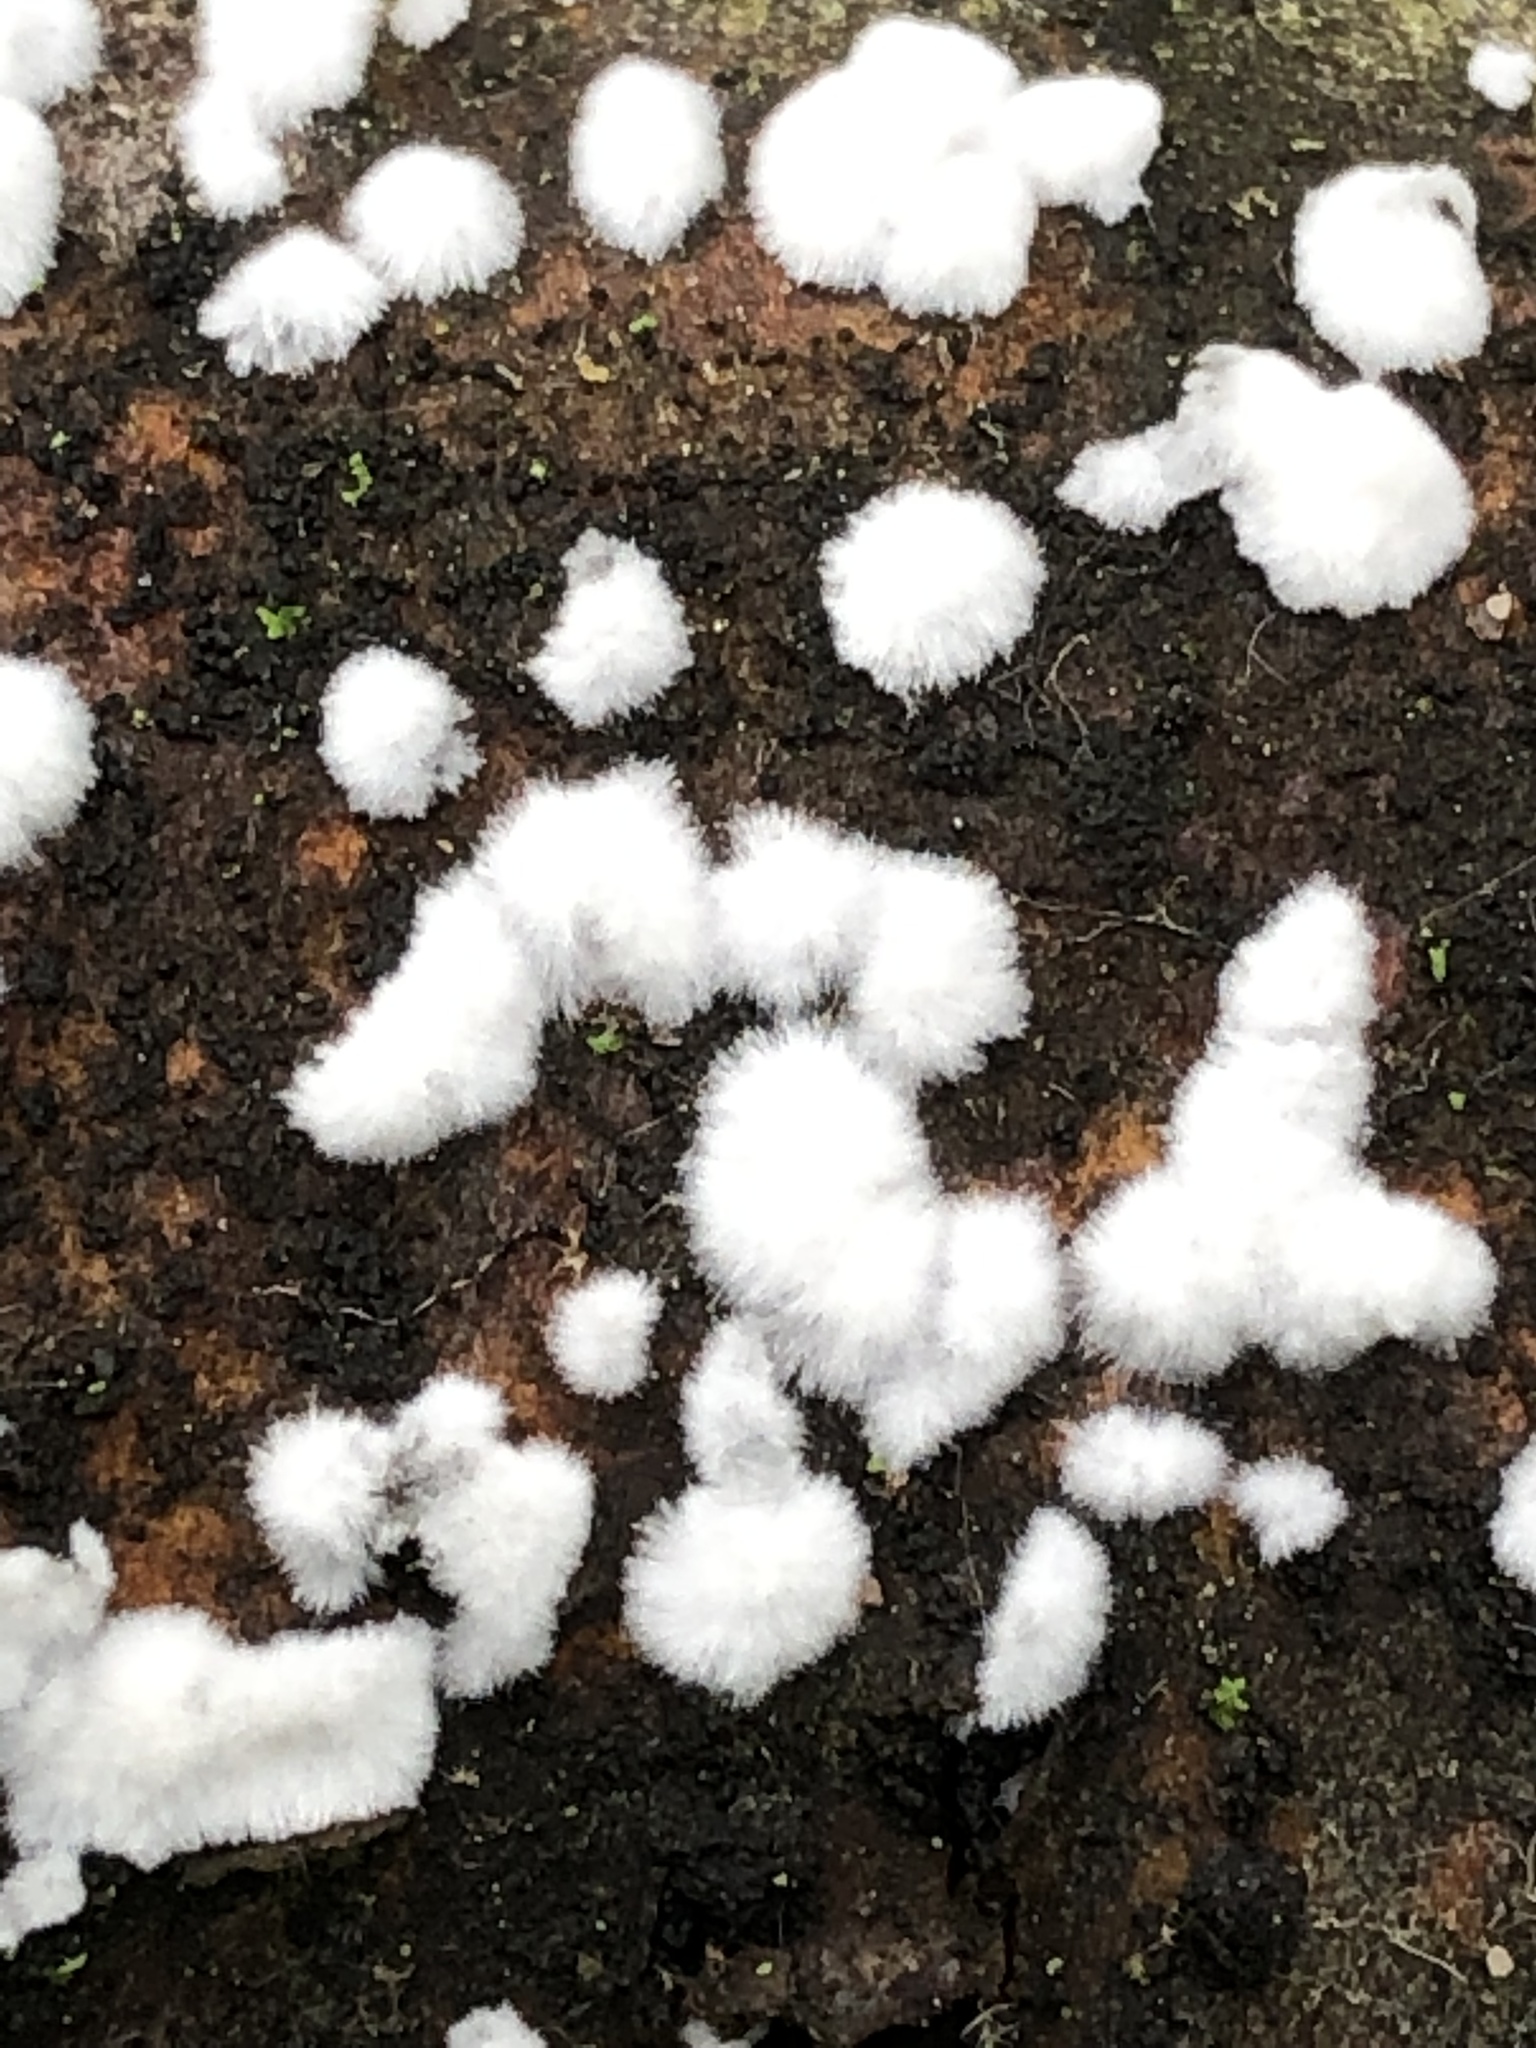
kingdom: Protozoa
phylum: Mycetozoa
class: Protosteliomycetes
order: Ceratiomyxales
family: Ceratiomyxaceae
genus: Ceratiomyxa
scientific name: Ceratiomyxa fruticulosa
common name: Honeycomb coral slime mold
